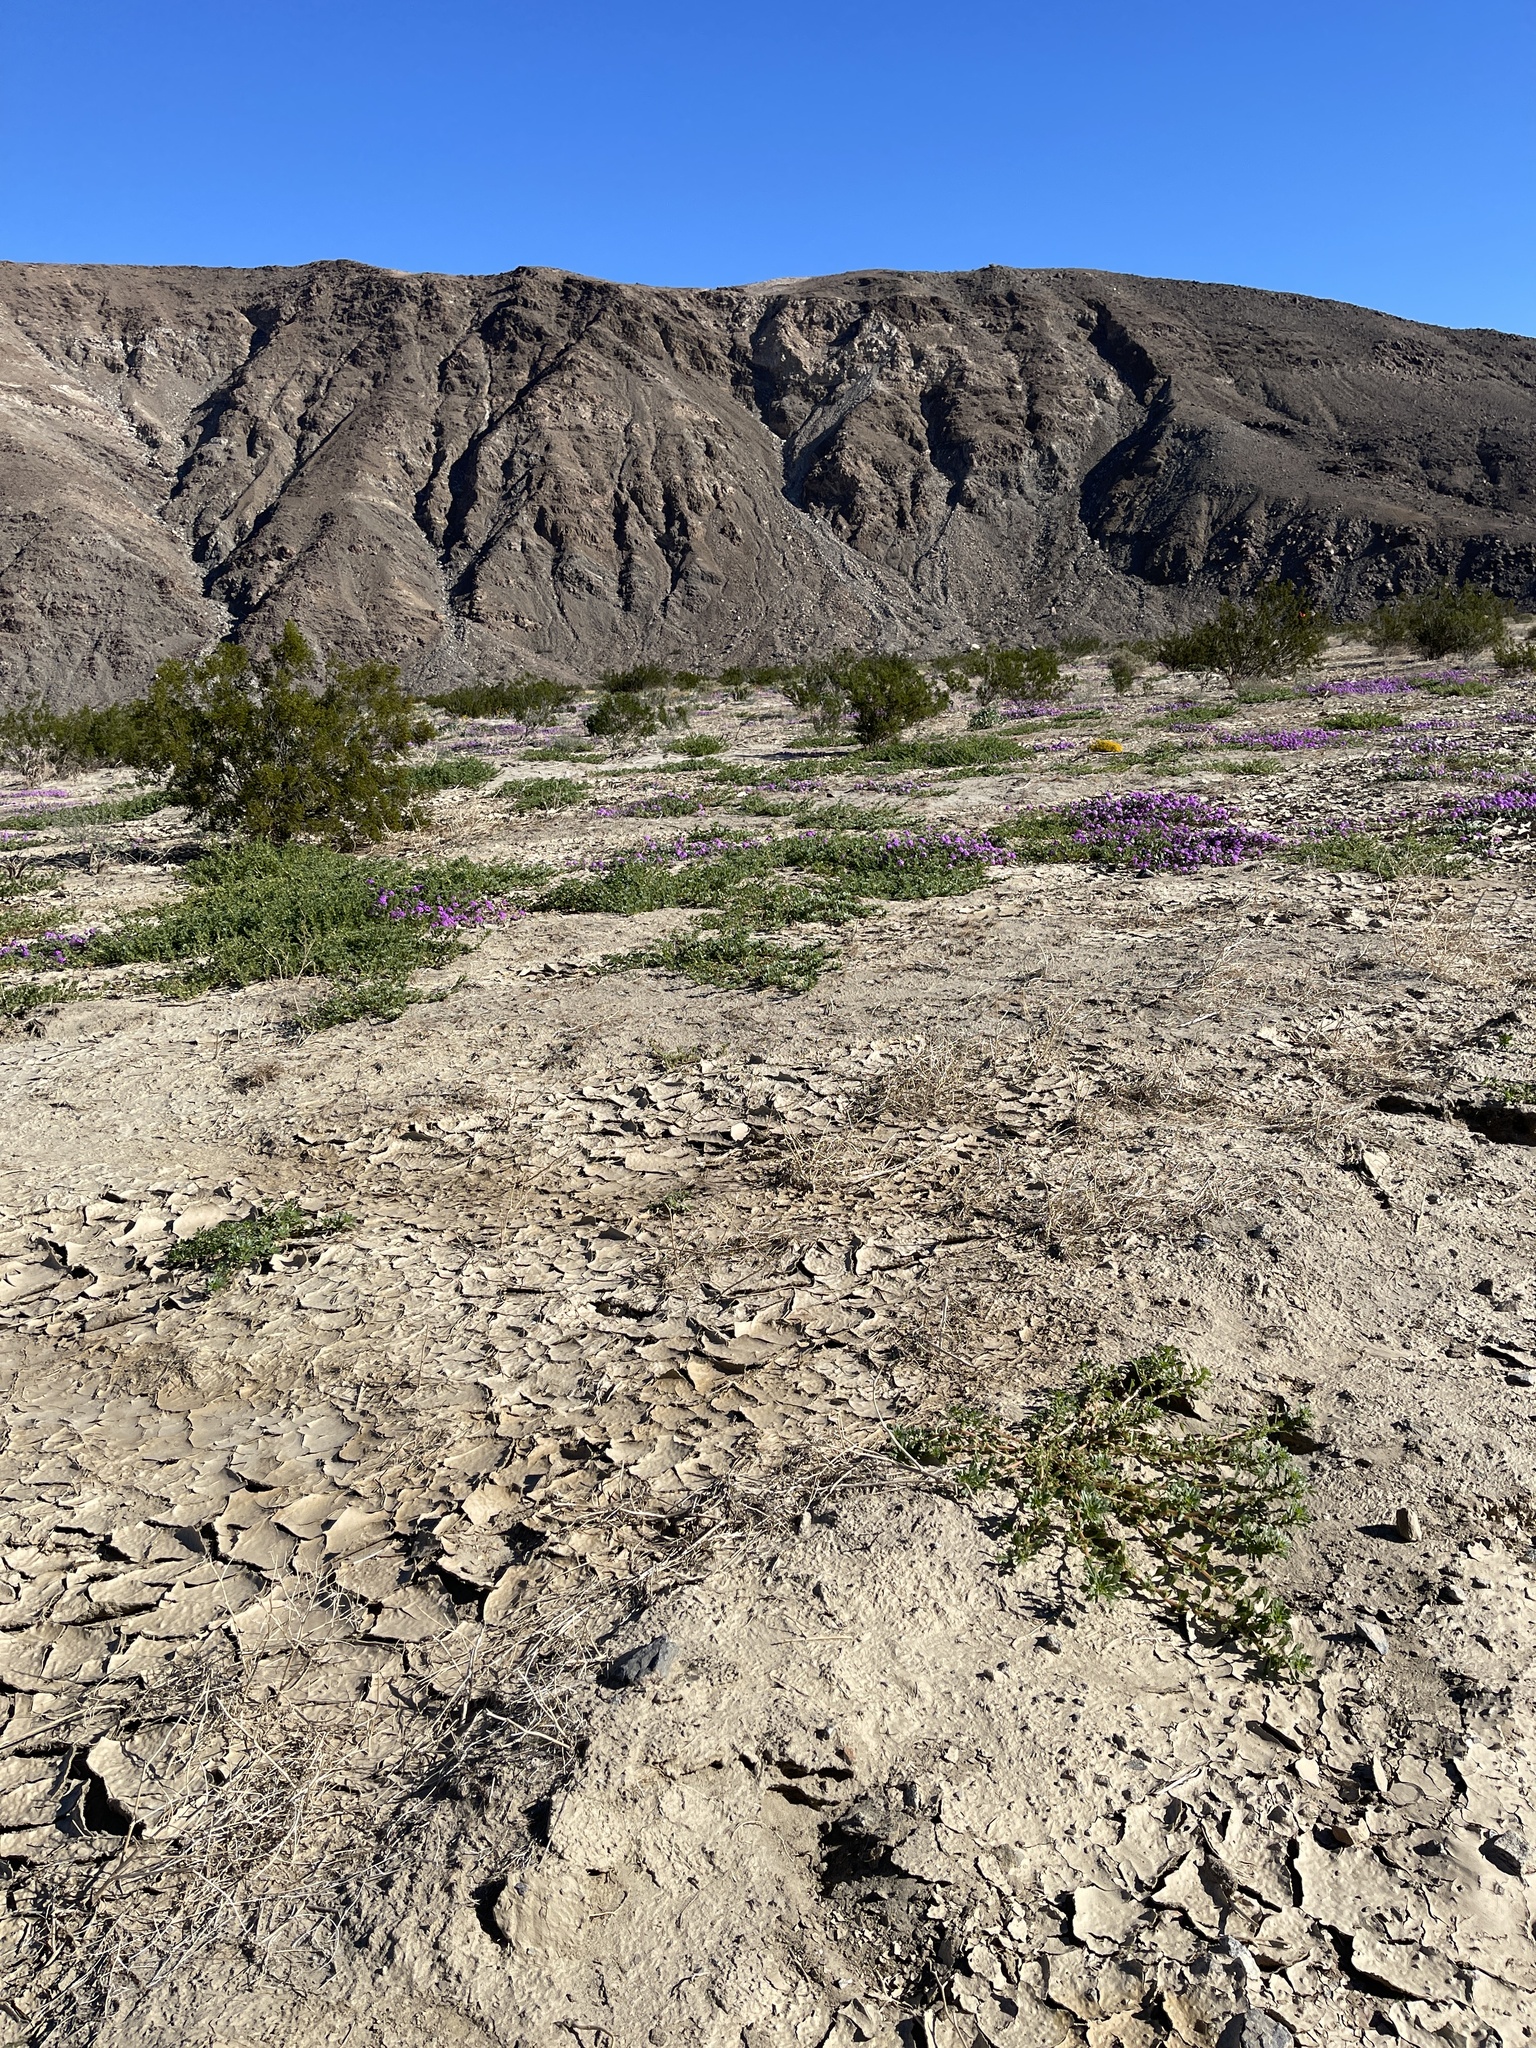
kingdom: Plantae
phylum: Tracheophyta
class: Magnoliopsida
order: Asterales
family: Asteraceae
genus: Pectis
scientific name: Pectis papposa
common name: Many-bristle chinchweed
